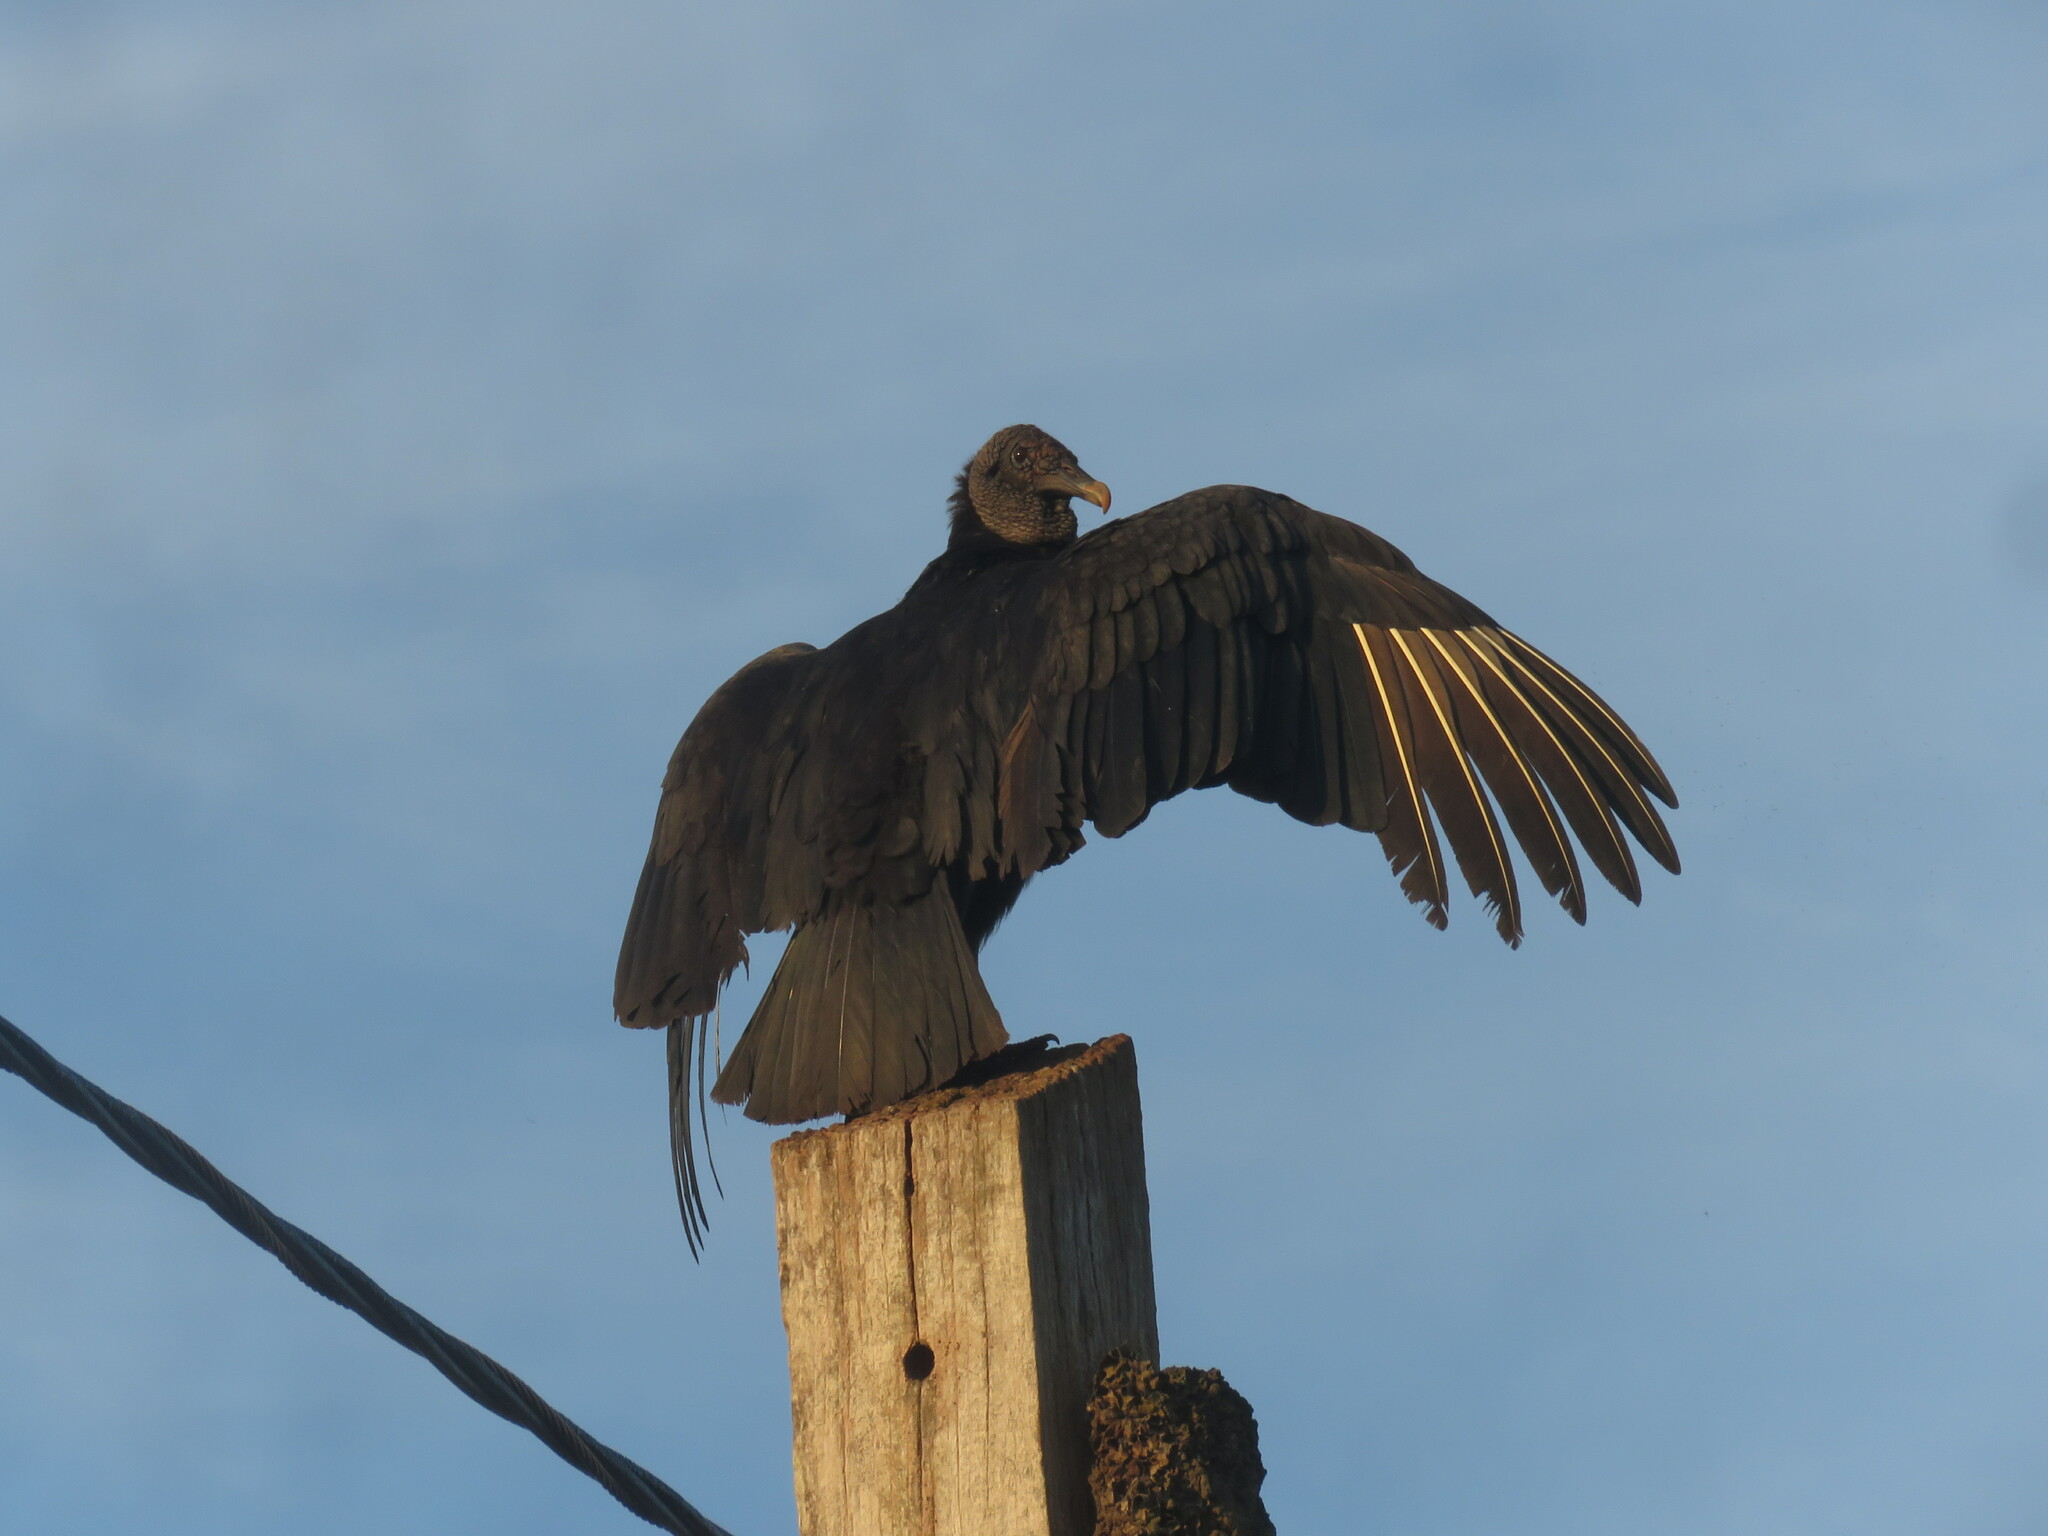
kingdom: Animalia
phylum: Chordata
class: Aves
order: Accipitriformes
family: Cathartidae
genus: Coragyps
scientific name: Coragyps atratus
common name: Black vulture
